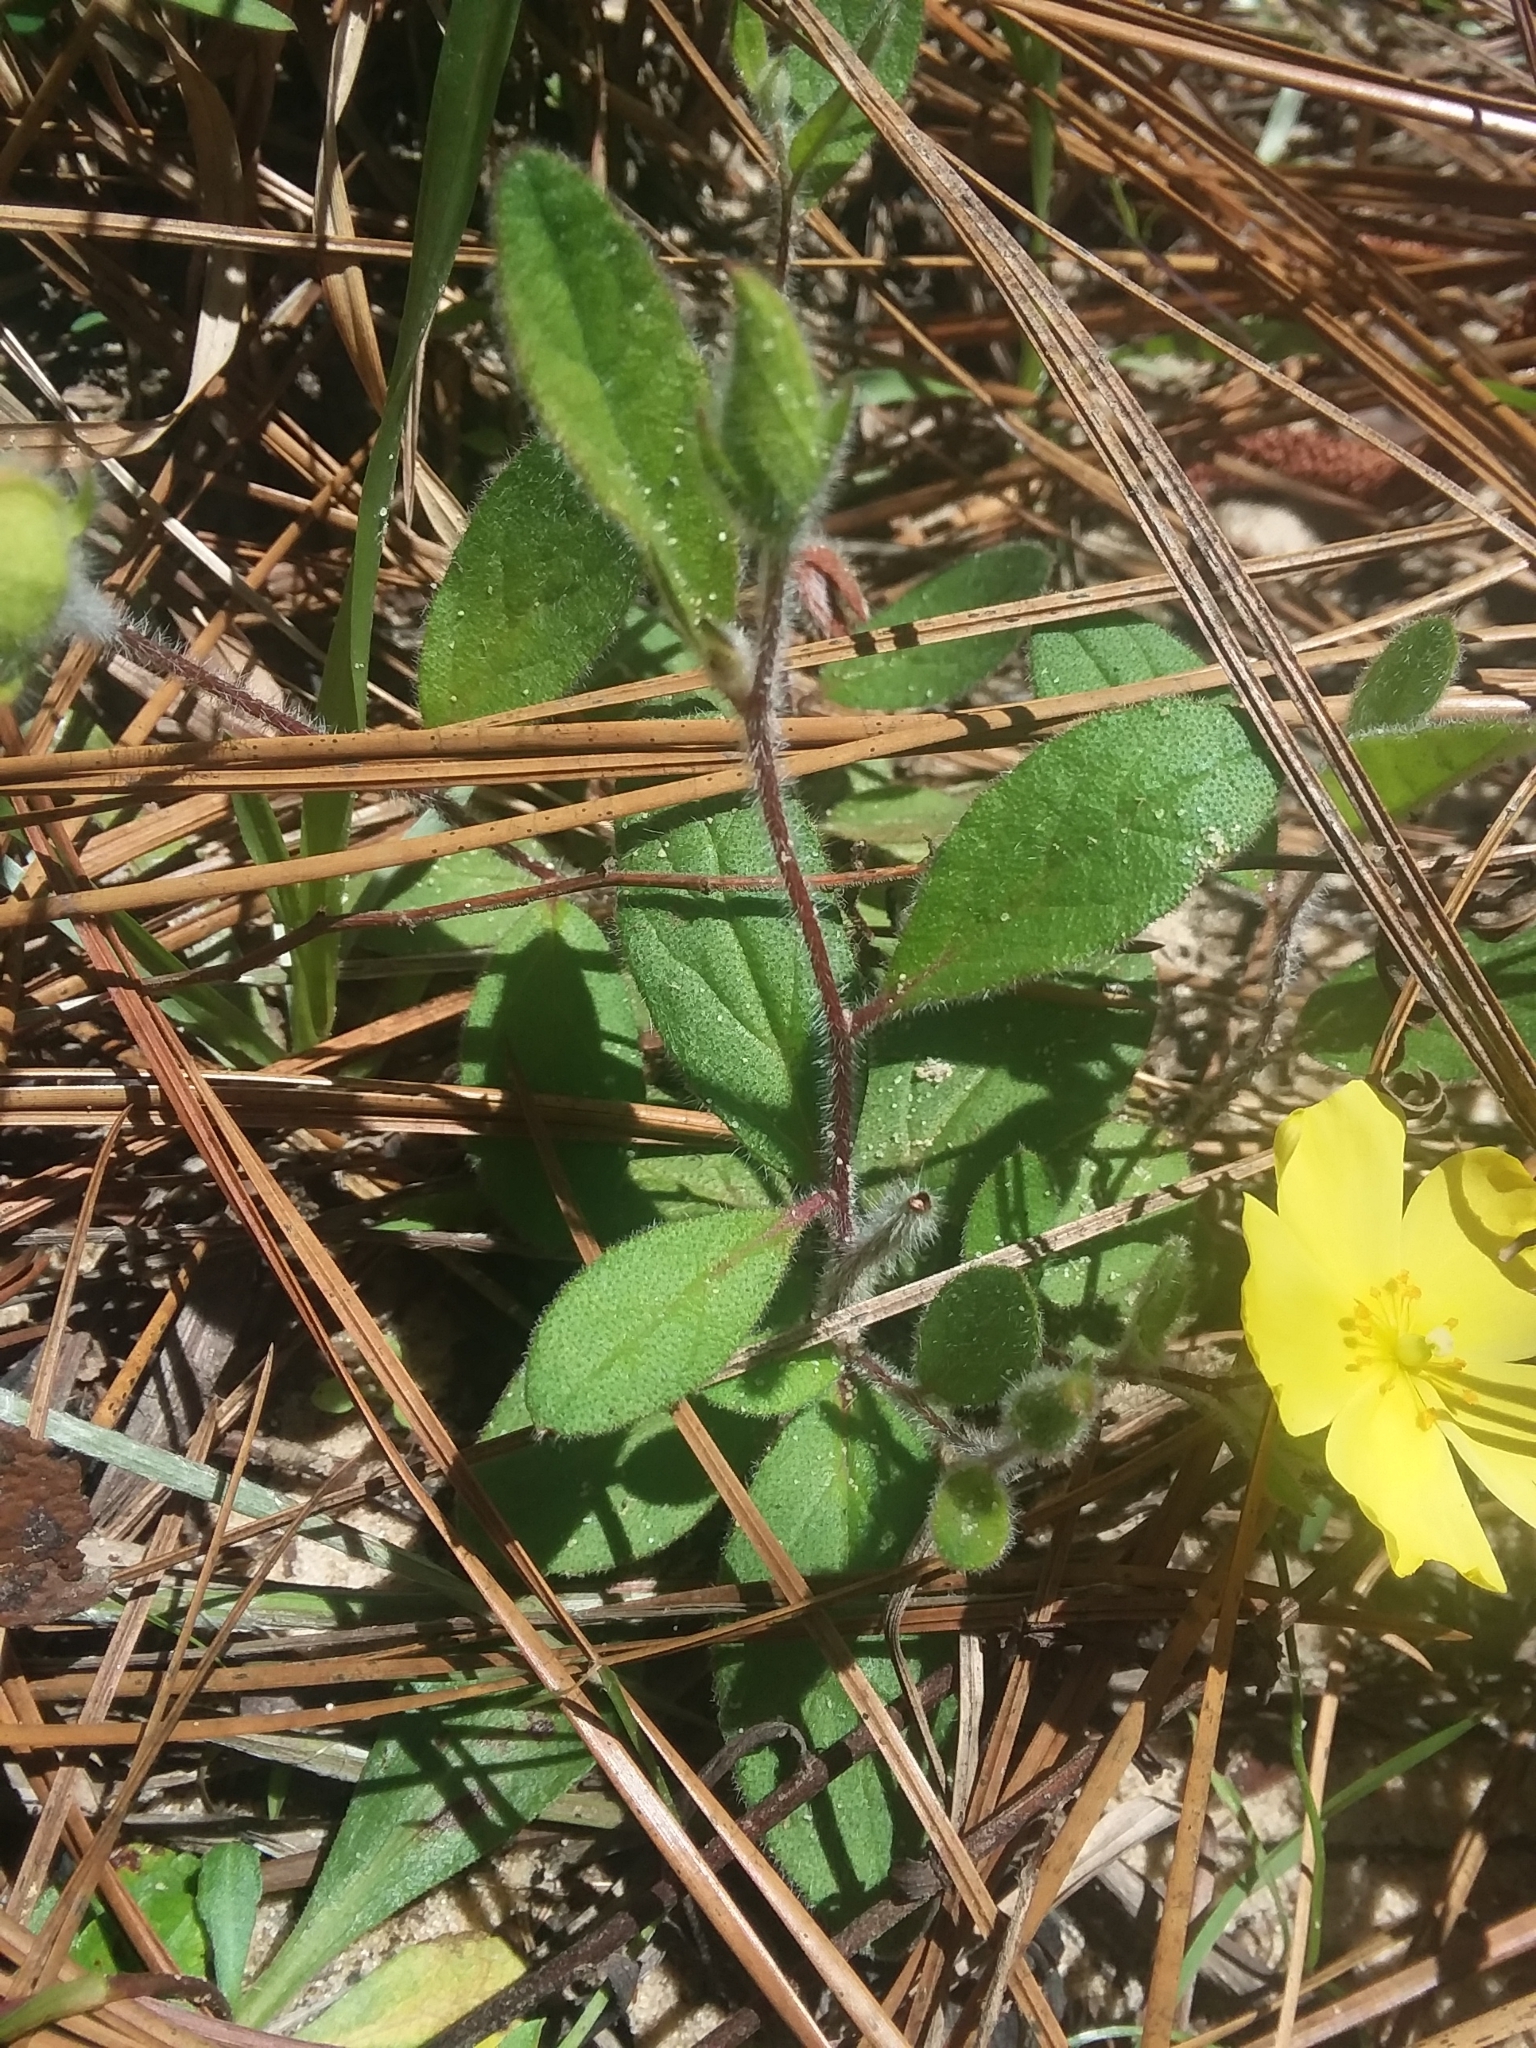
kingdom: Plantae
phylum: Tracheophyta
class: Magnoliopsida
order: Malvales
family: Cistaceae
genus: Crocanthemum
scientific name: Crocanthemum carolinianum
